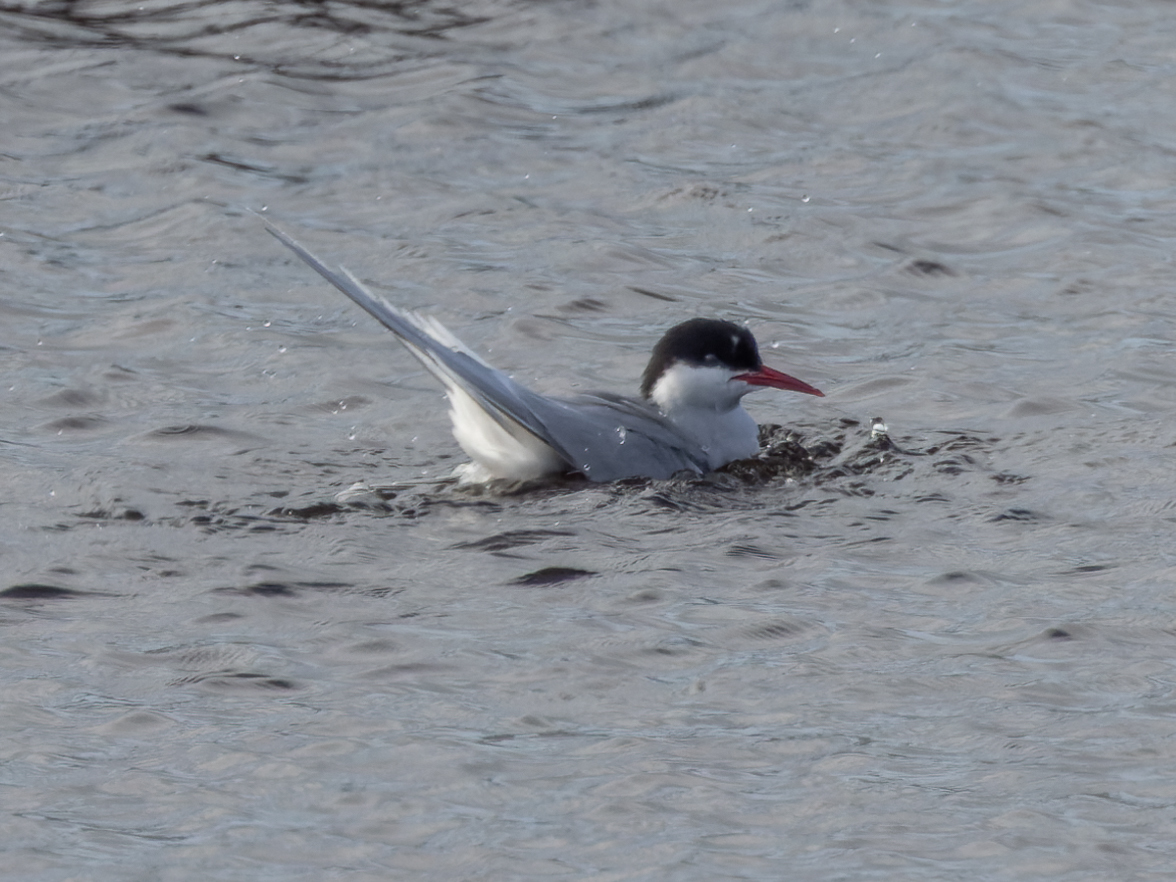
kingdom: Animalia
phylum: Chordata
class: Aves
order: Charadriiformes
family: Laridae
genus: Sterna
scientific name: Sterna paradisaea
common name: Arctic tern
